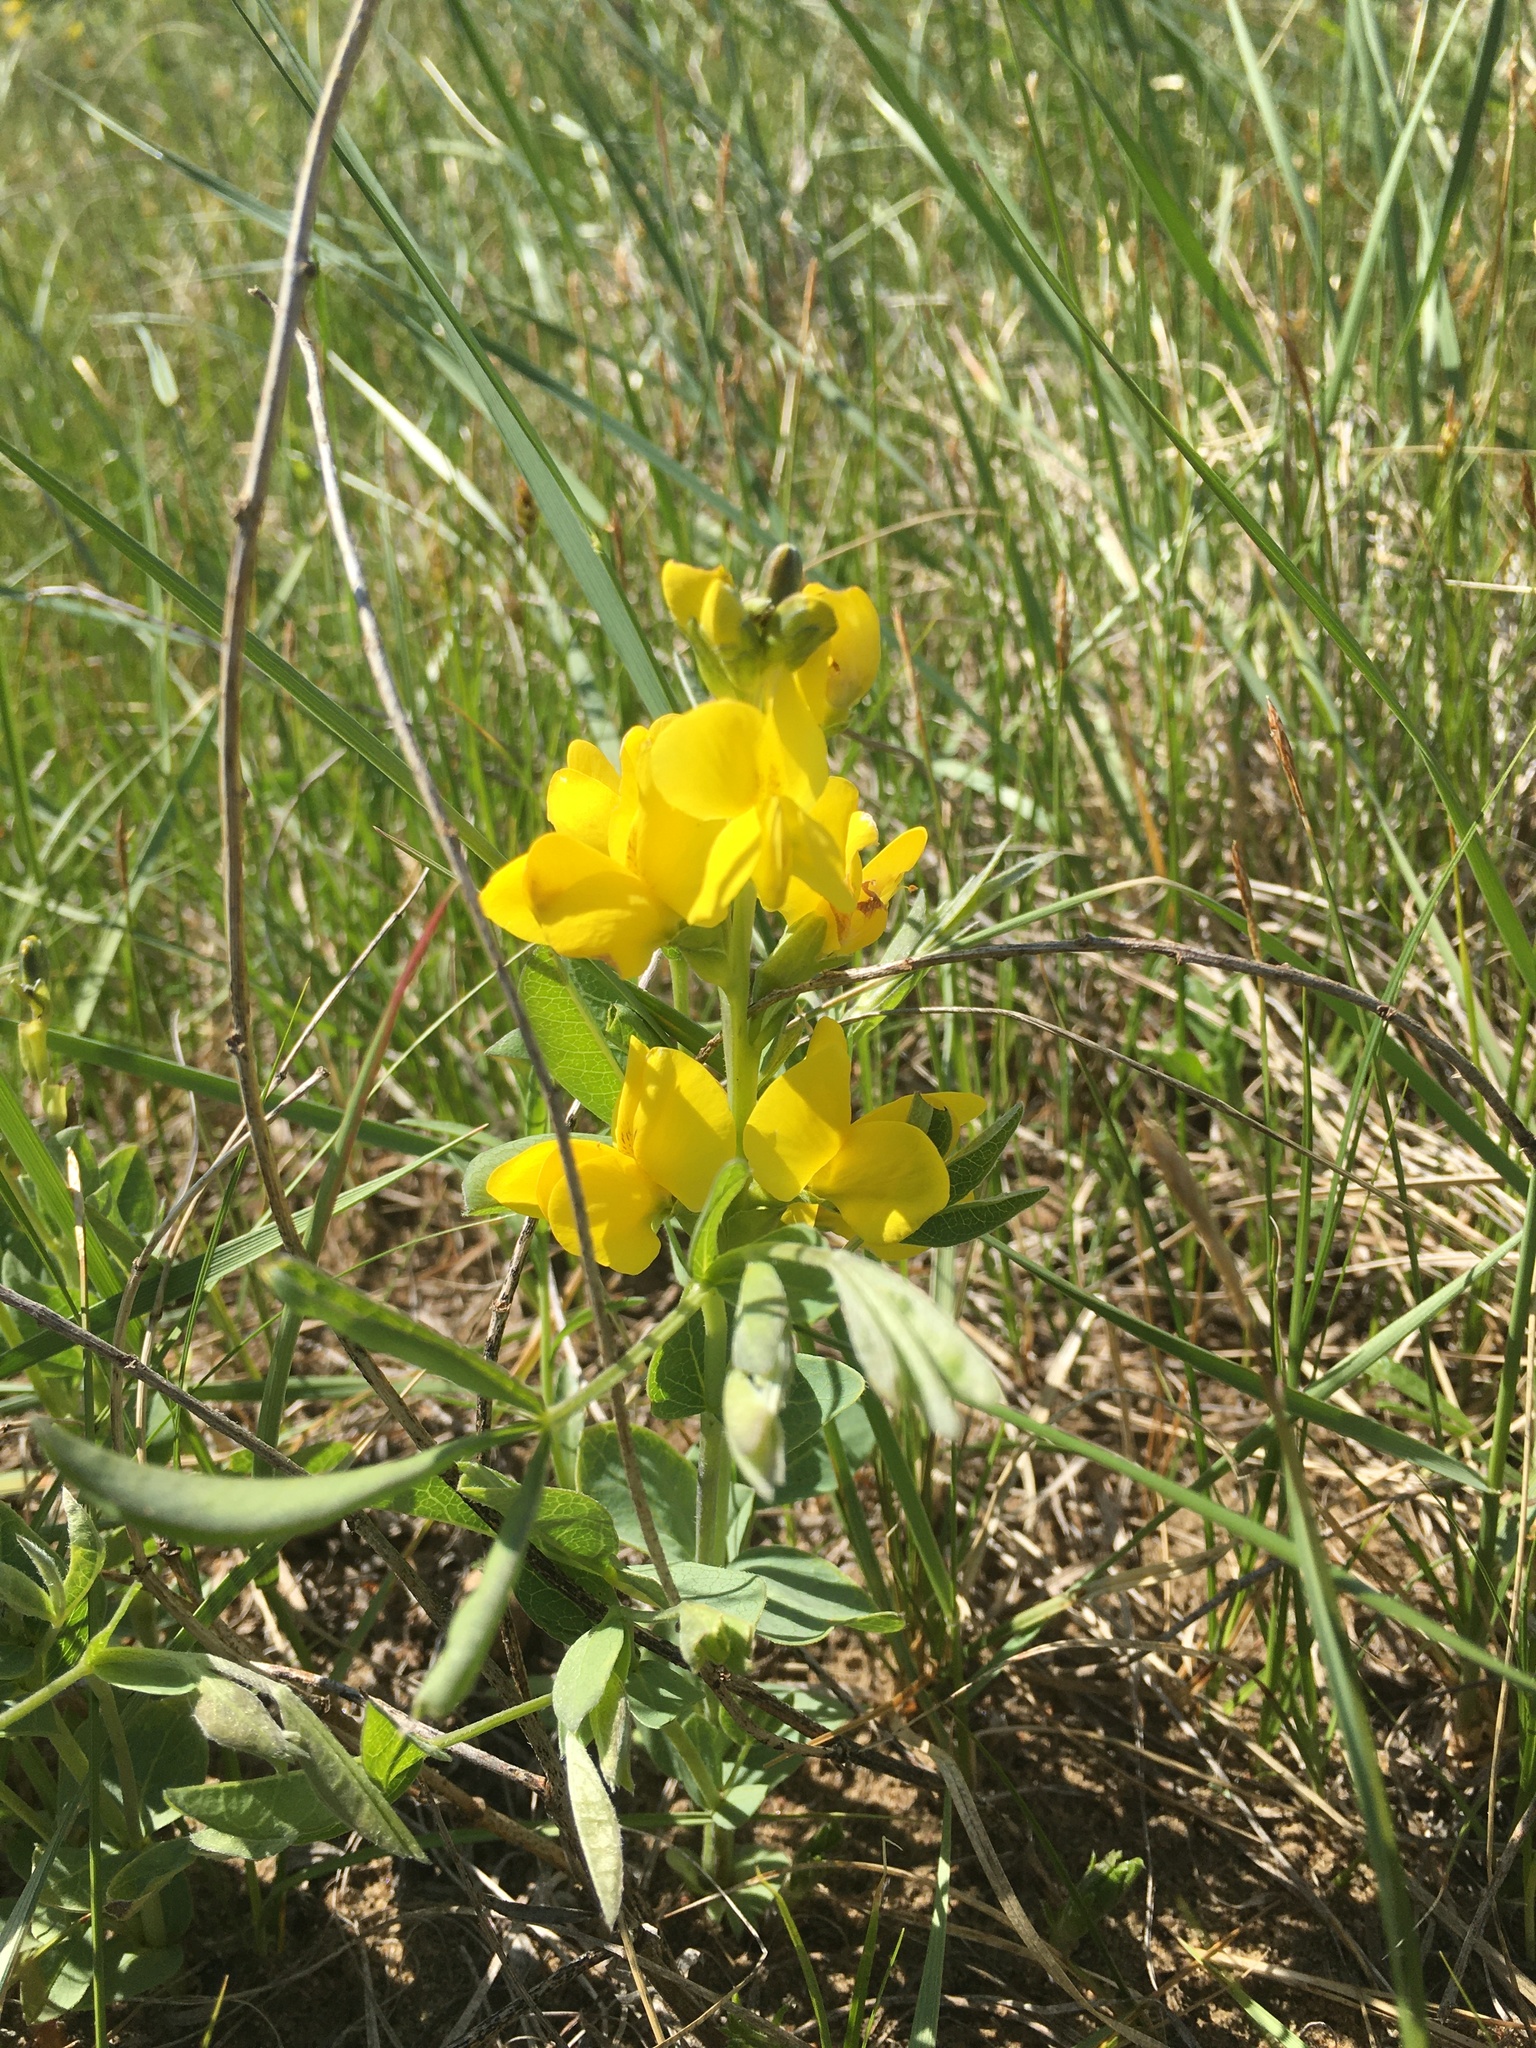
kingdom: Plantae
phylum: Tracheophyta
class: Magnoliopsida
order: Fabales
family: Fabaceae
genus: Thermopsis
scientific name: Thermopsis rhombifolia
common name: Circle-pod-pea
